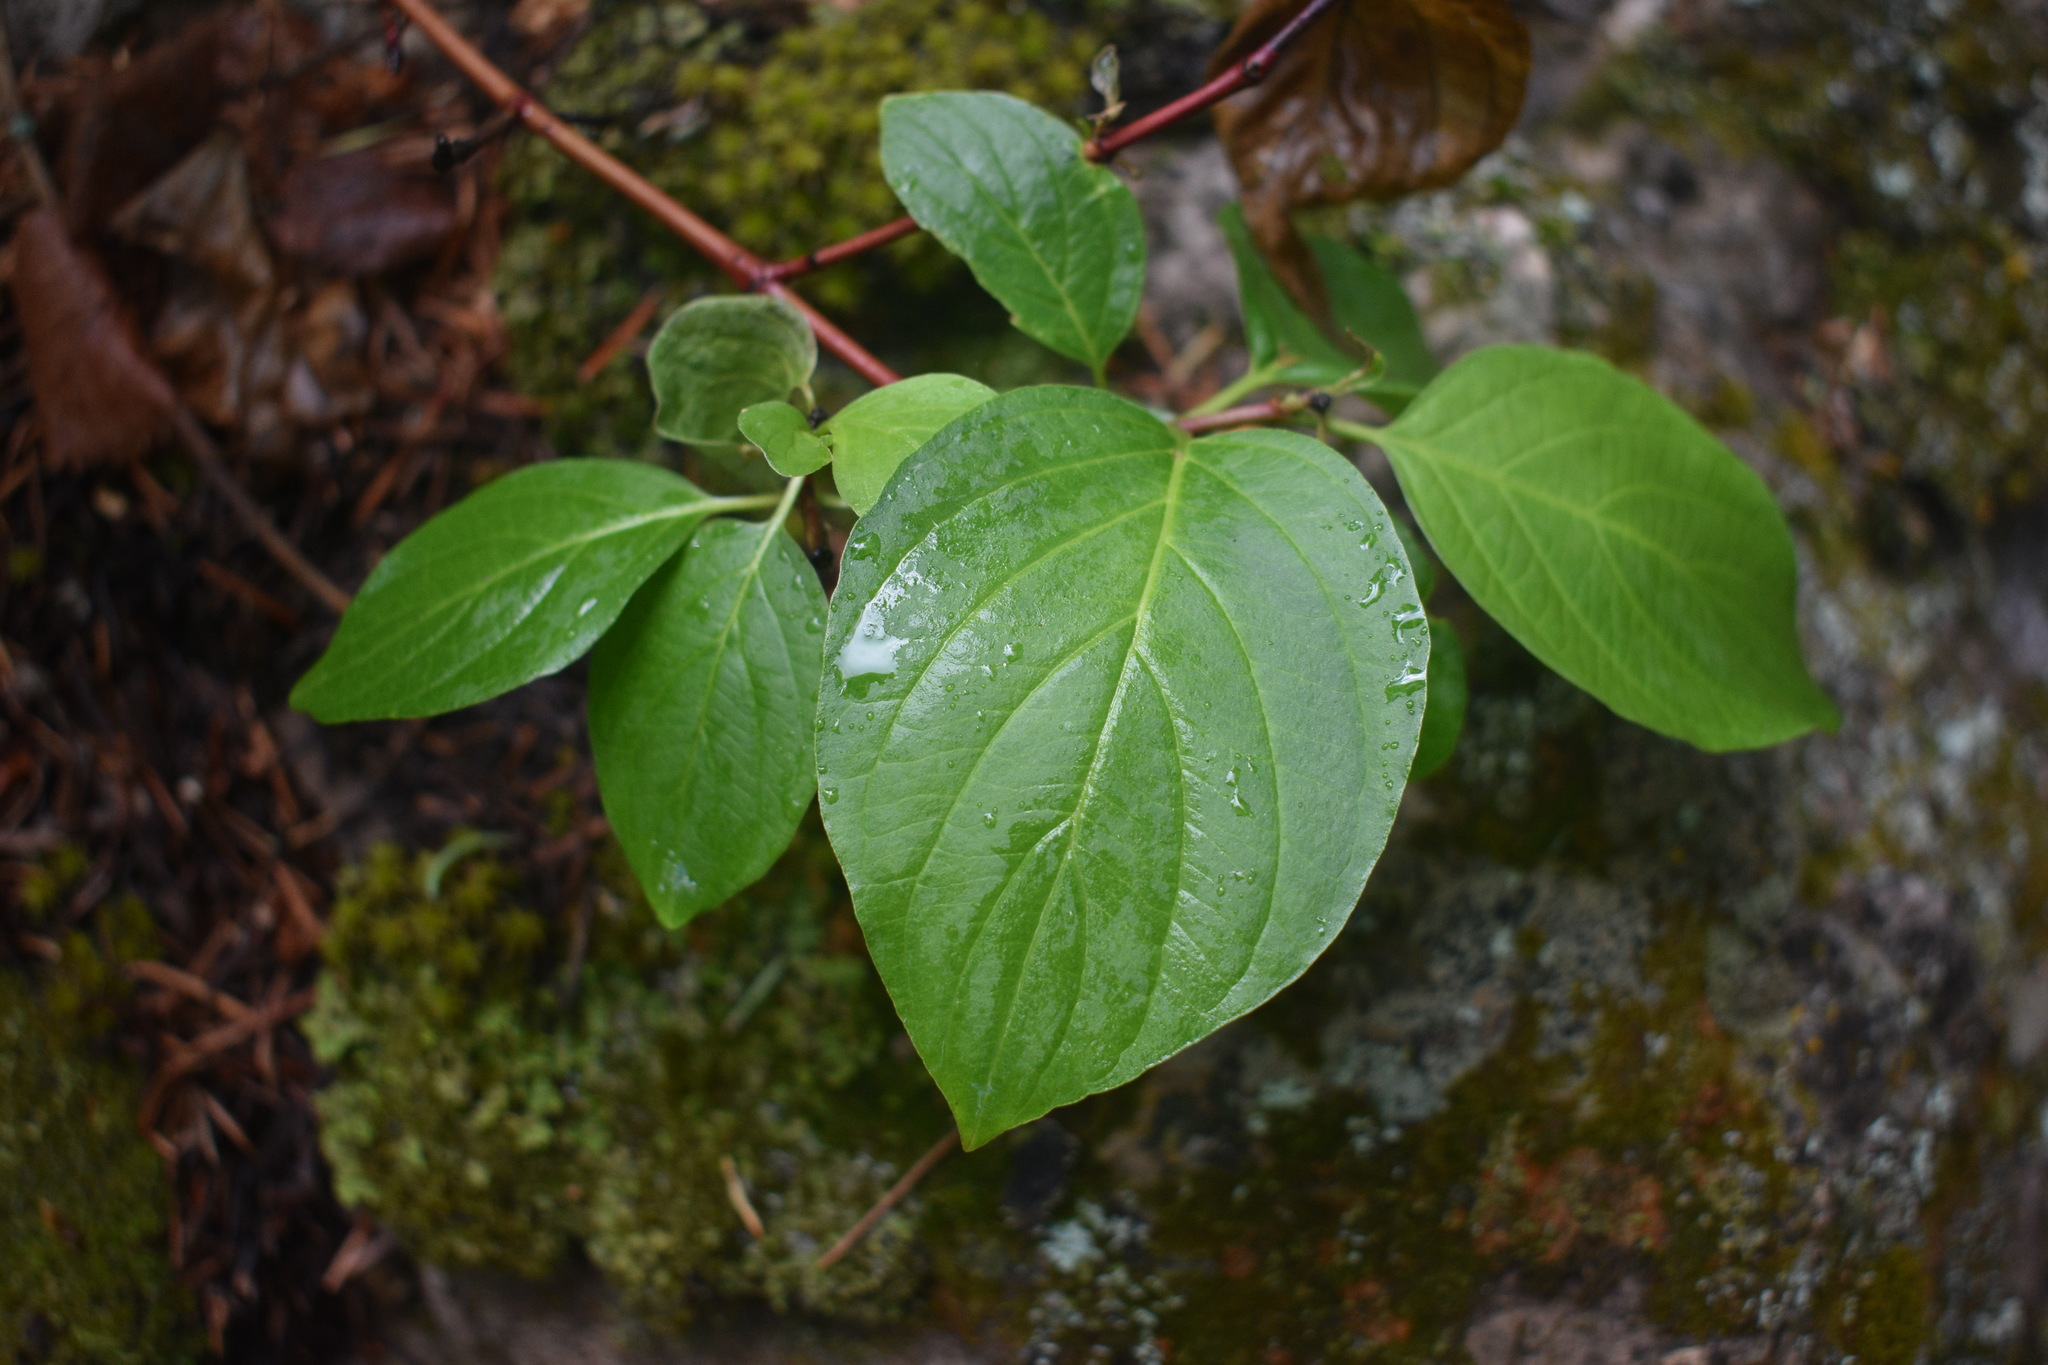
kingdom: Plantae
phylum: Tracheophyta
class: Magnoliopsida
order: Cornales
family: Cornaceae
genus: Cornus
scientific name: Cornus sericea
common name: Red-osier dogwood
